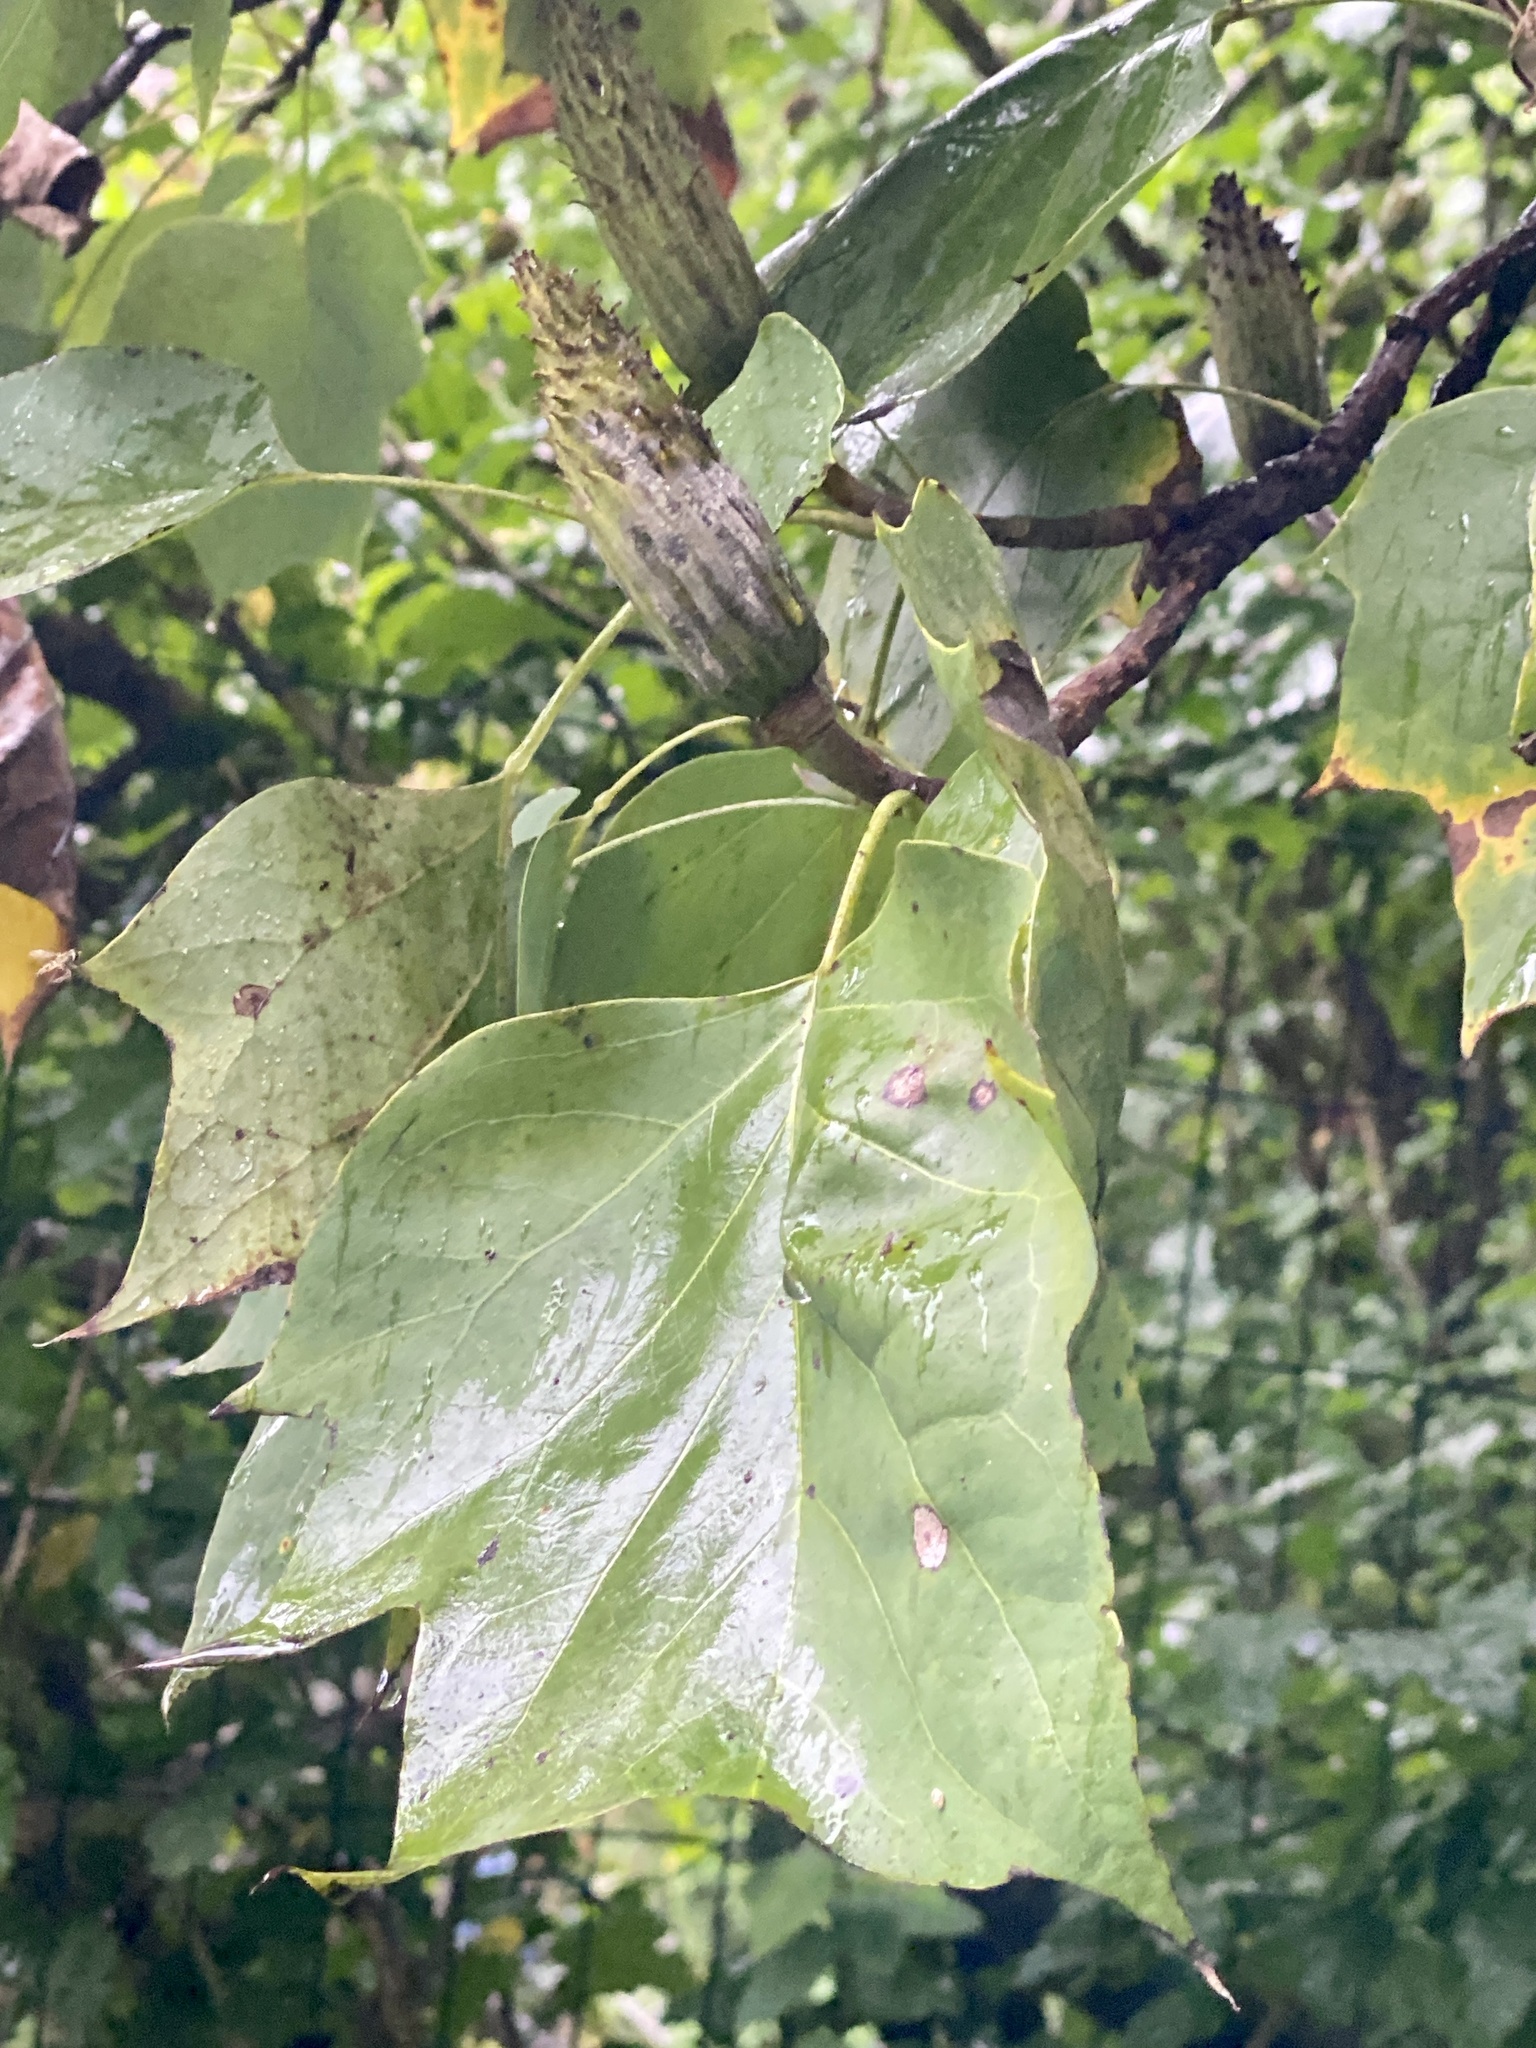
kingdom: Plantae
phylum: Tracheophyta
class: Magnoliopsida
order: Magnoliales
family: Magnoliaceae
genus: Liriodendron
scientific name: Liriodendron tulipifera
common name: Tulip tree
